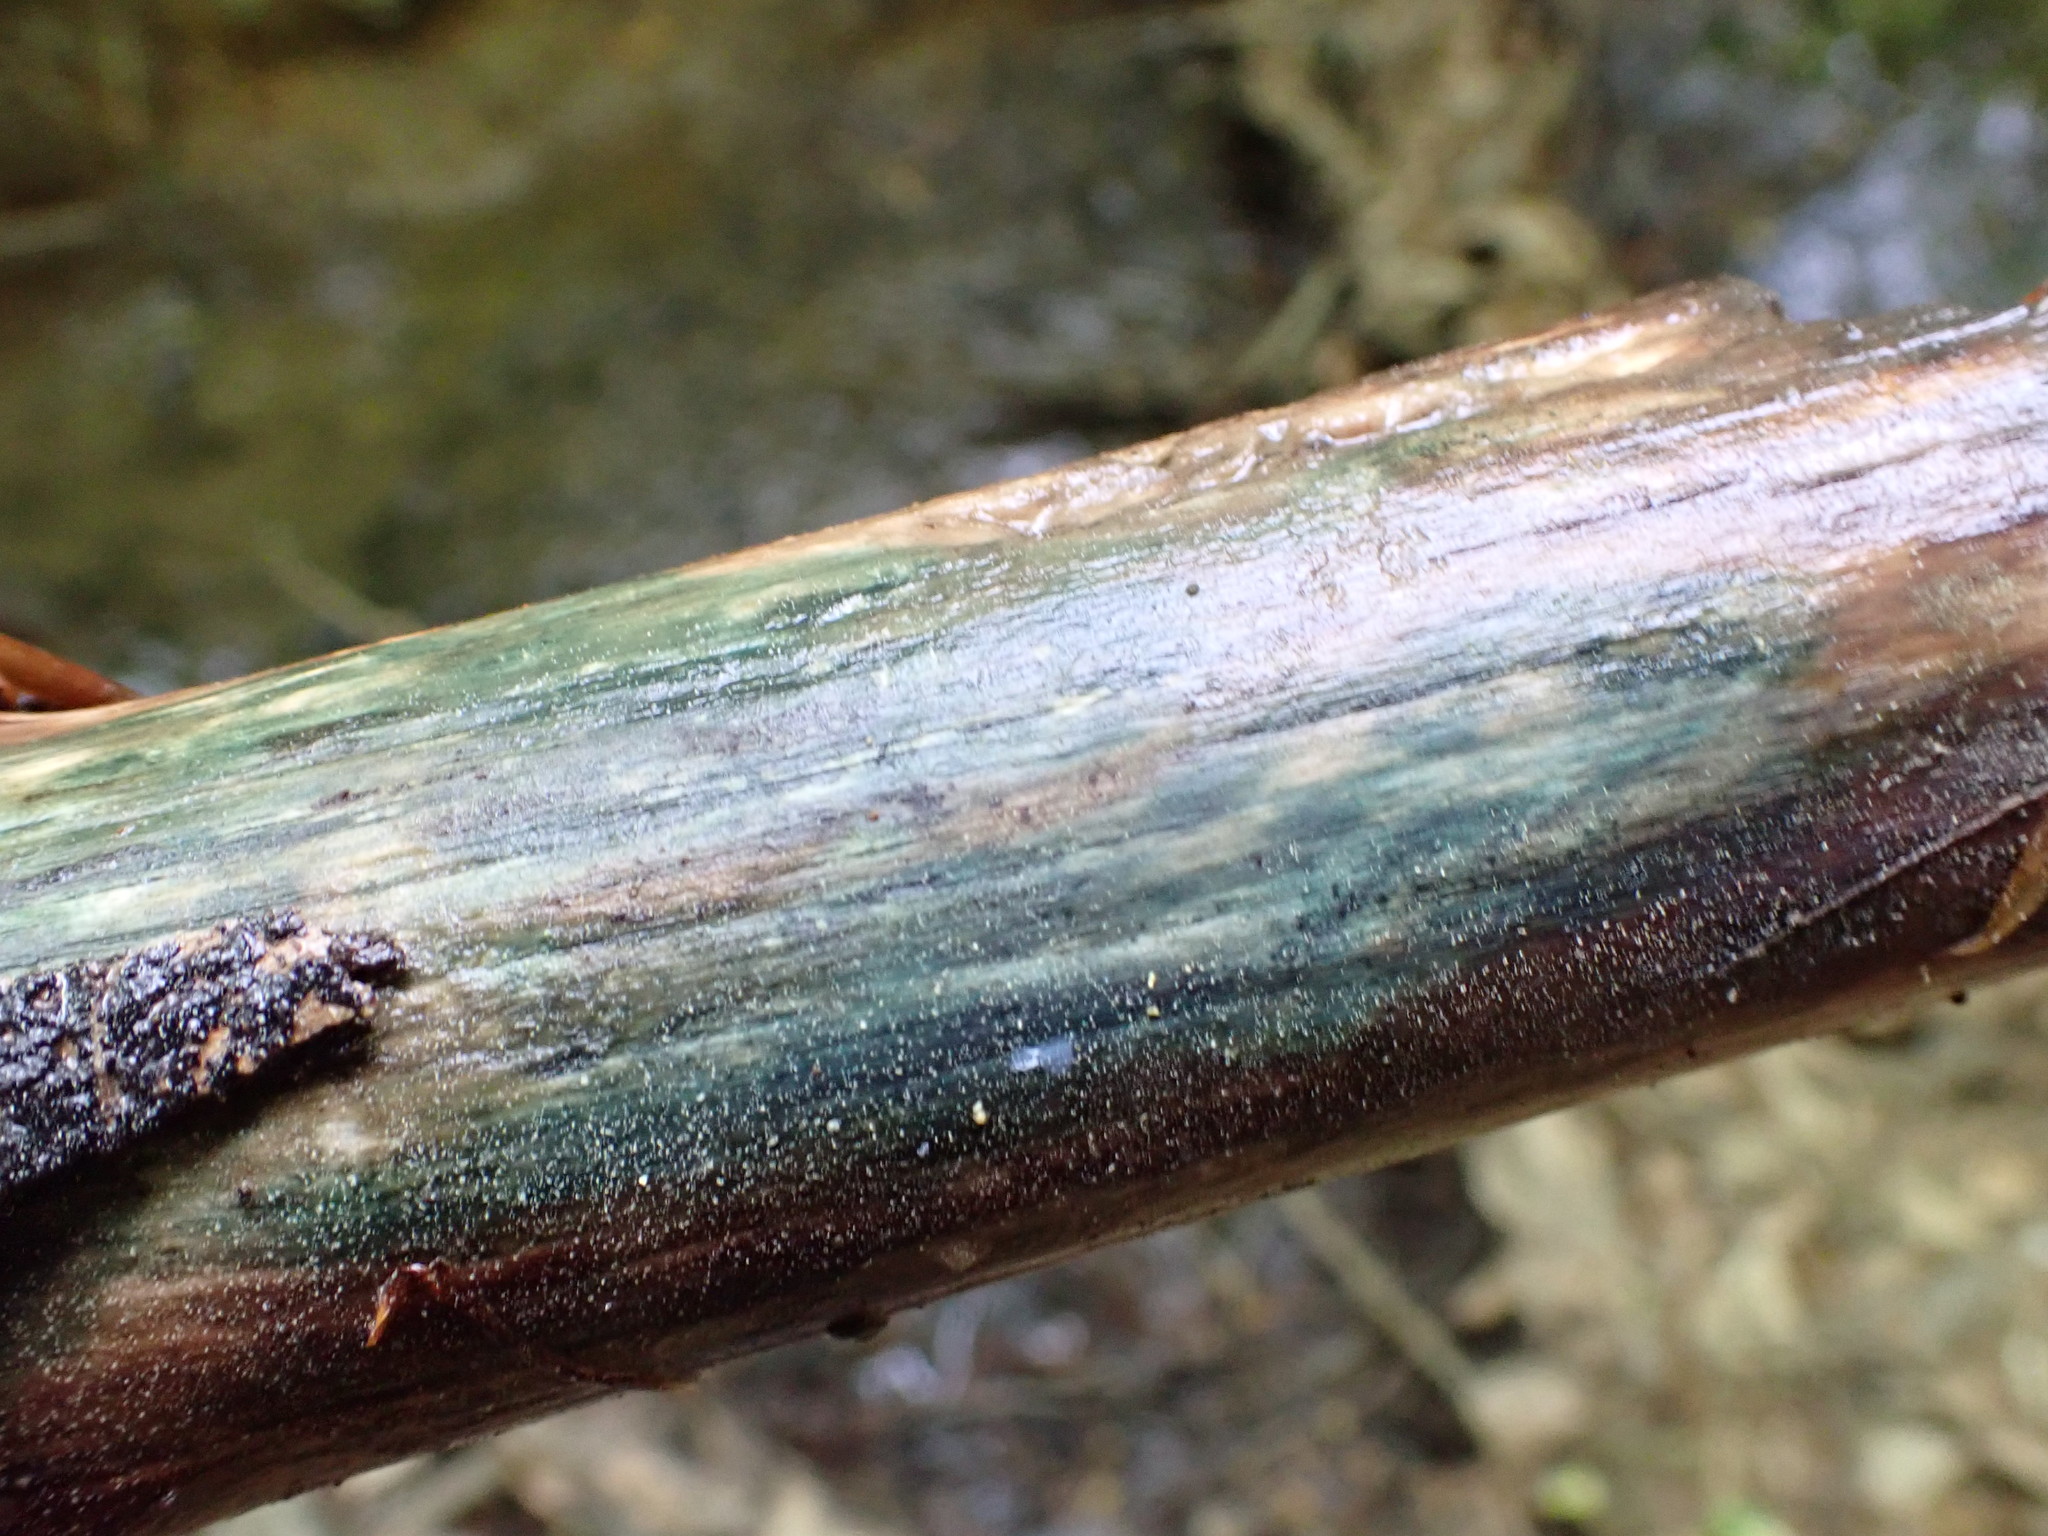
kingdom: Fungi
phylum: Ascomycota
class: Leotiomycetes
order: Helotiales
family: Chlorociboriaceae
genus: Chlorociboria
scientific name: Chlorociboria
